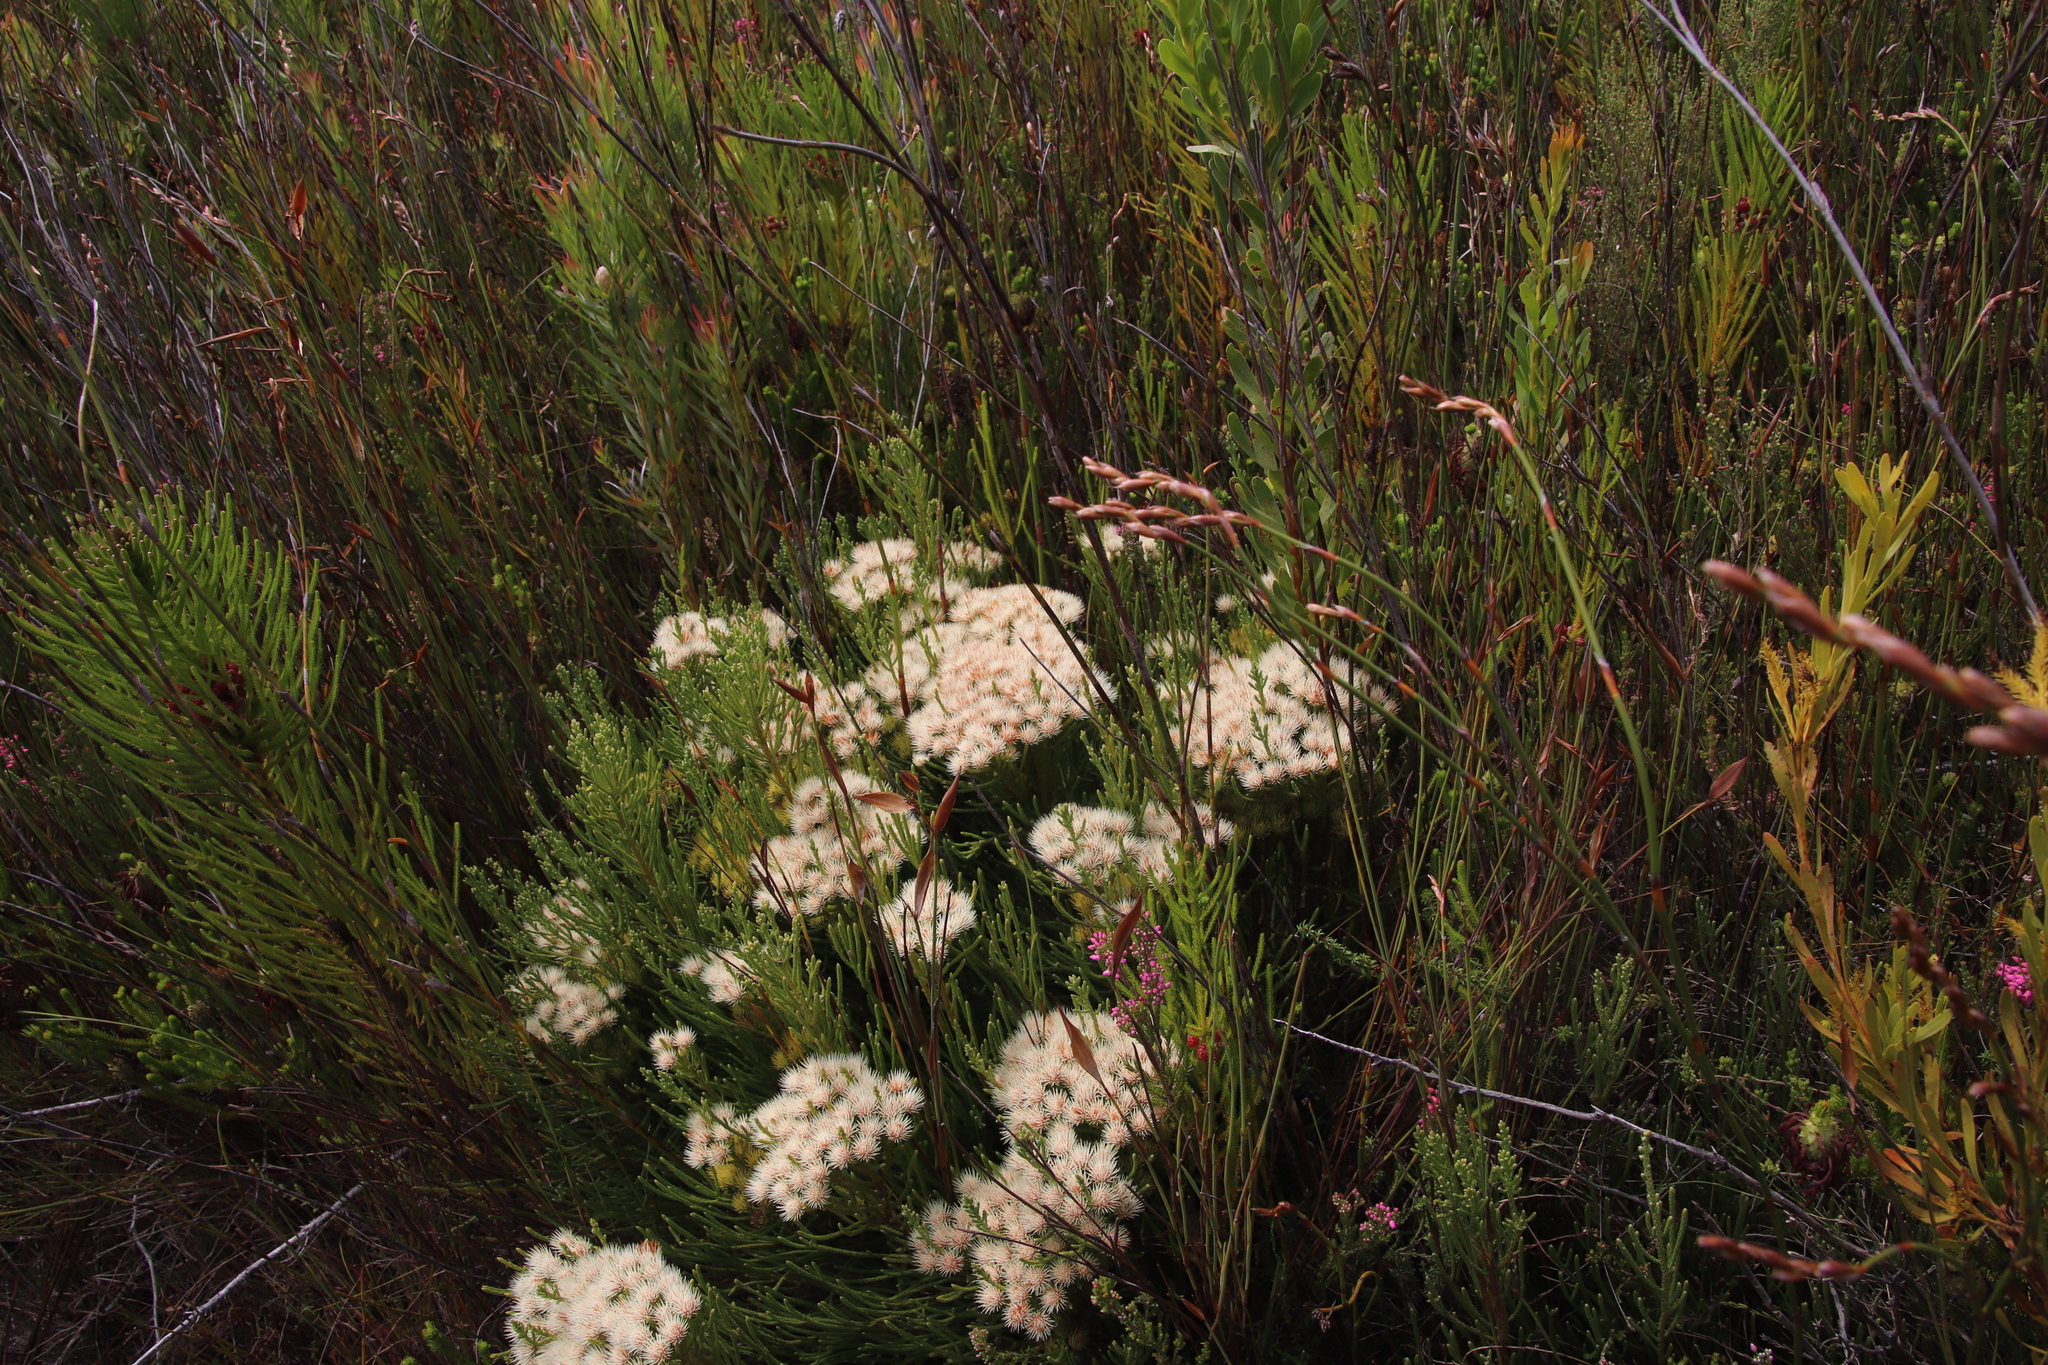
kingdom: Plantae
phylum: Tracheophyta
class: Magnoliopsida
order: Bruniales
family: Bruniaceae
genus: Brunia
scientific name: Brunia paleacea
